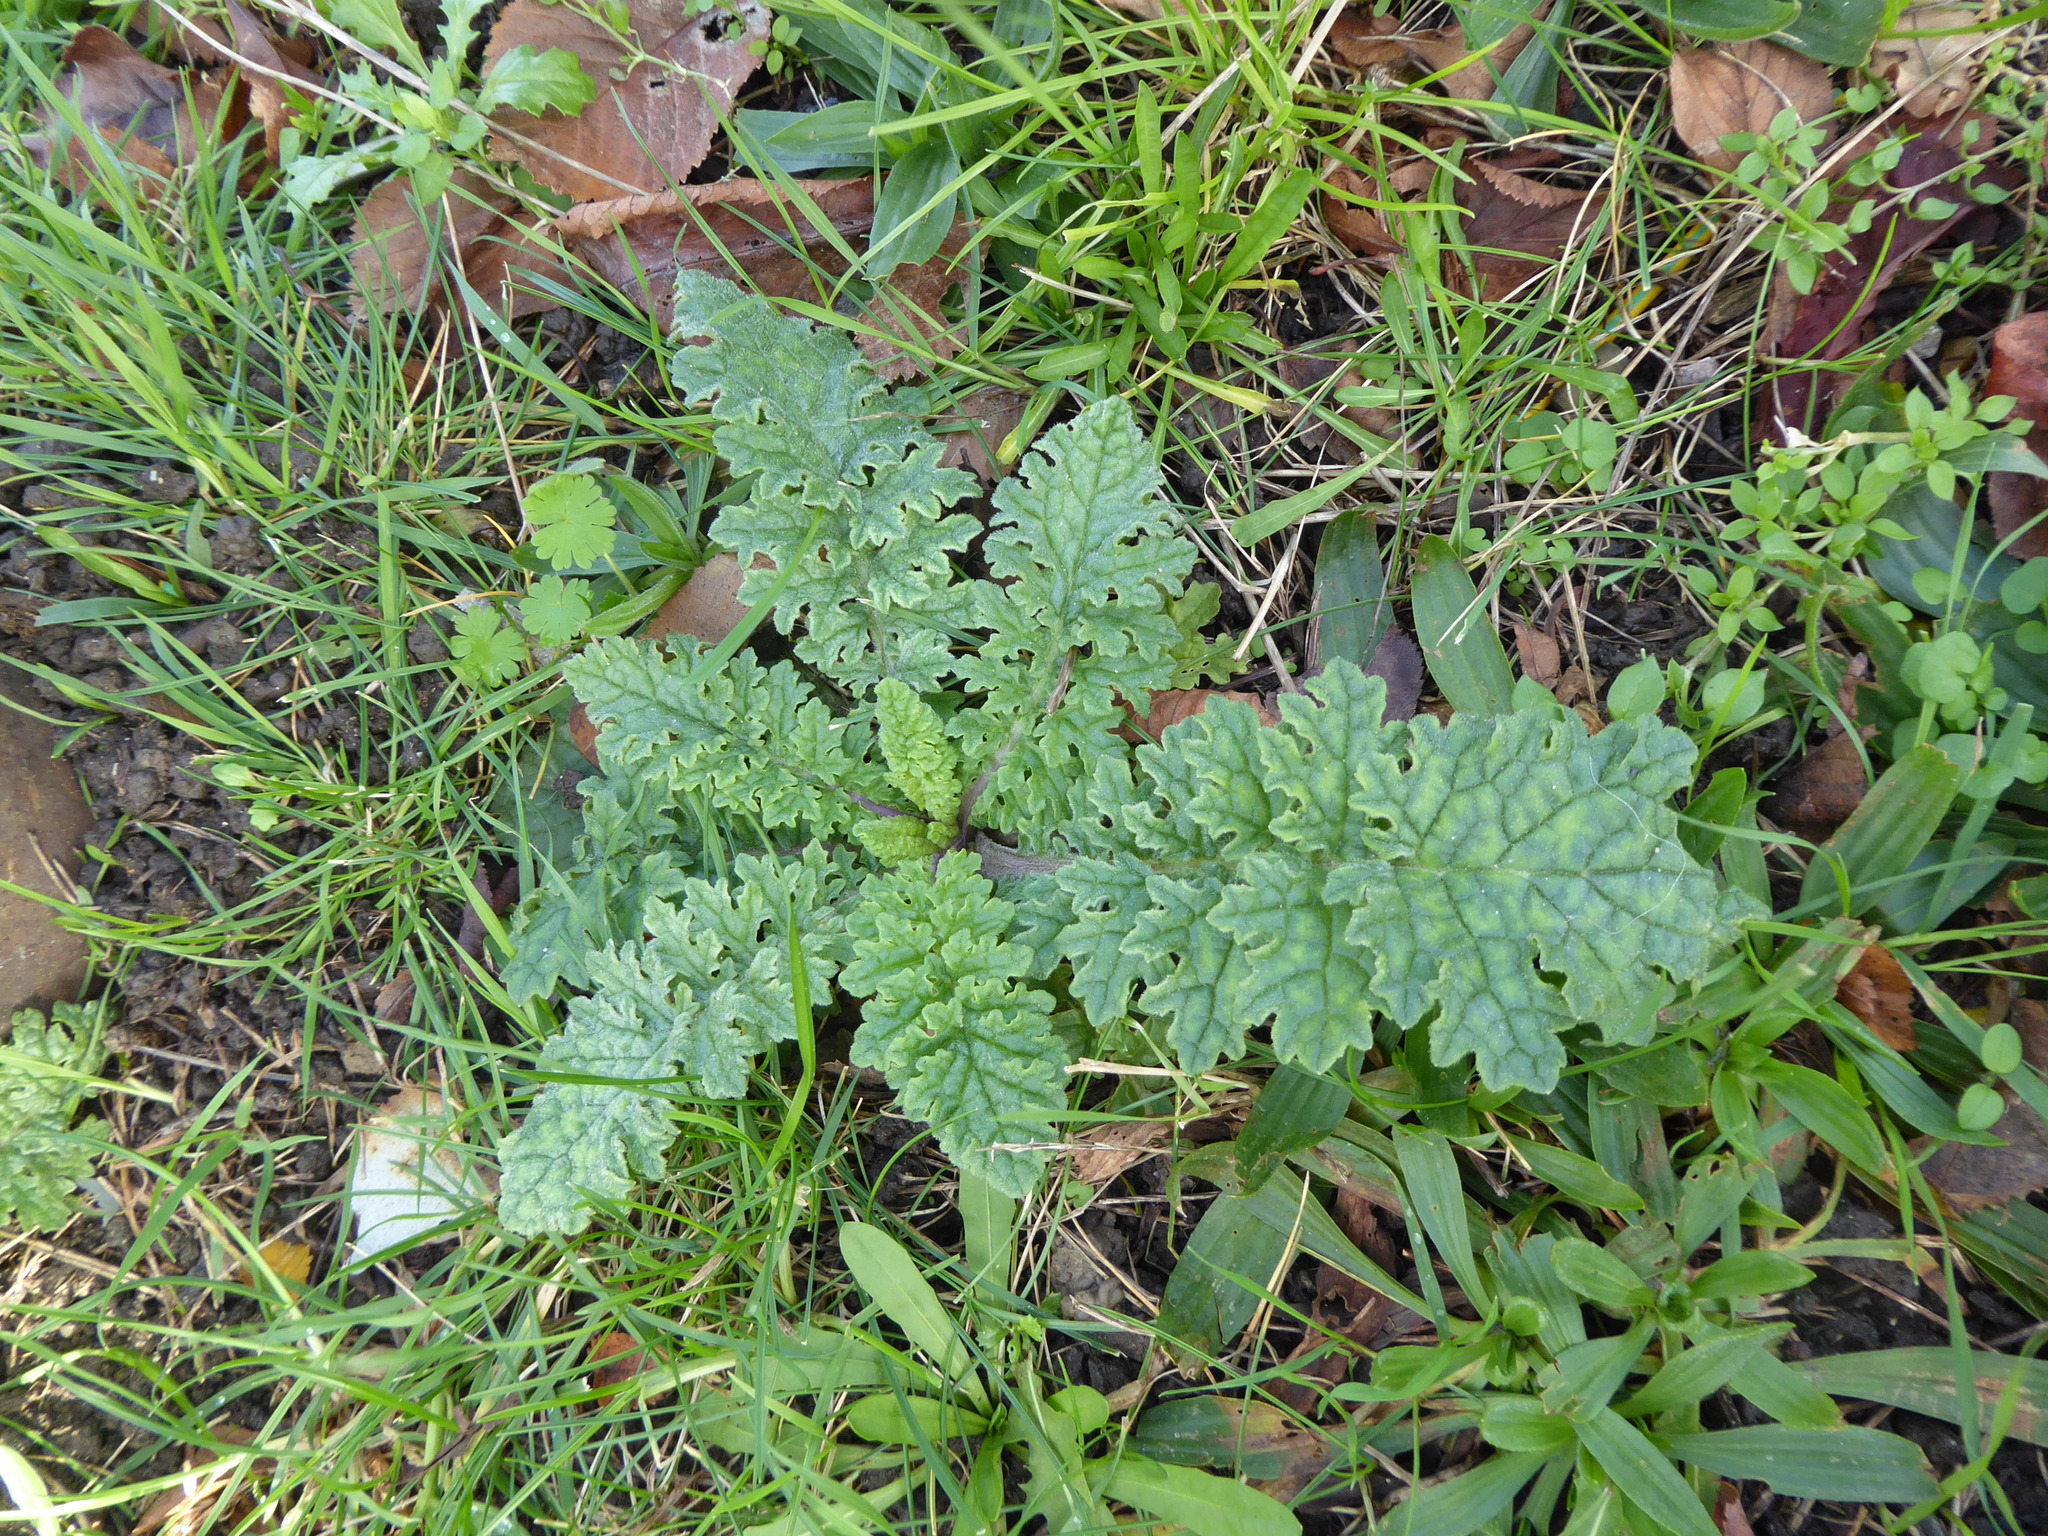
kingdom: Plantae
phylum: Tracheophyta
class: Magnoliopsida
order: Asterales
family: Asteraceae
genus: Jacobaea
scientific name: Jacobaea vulgaris
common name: Stinking willie
